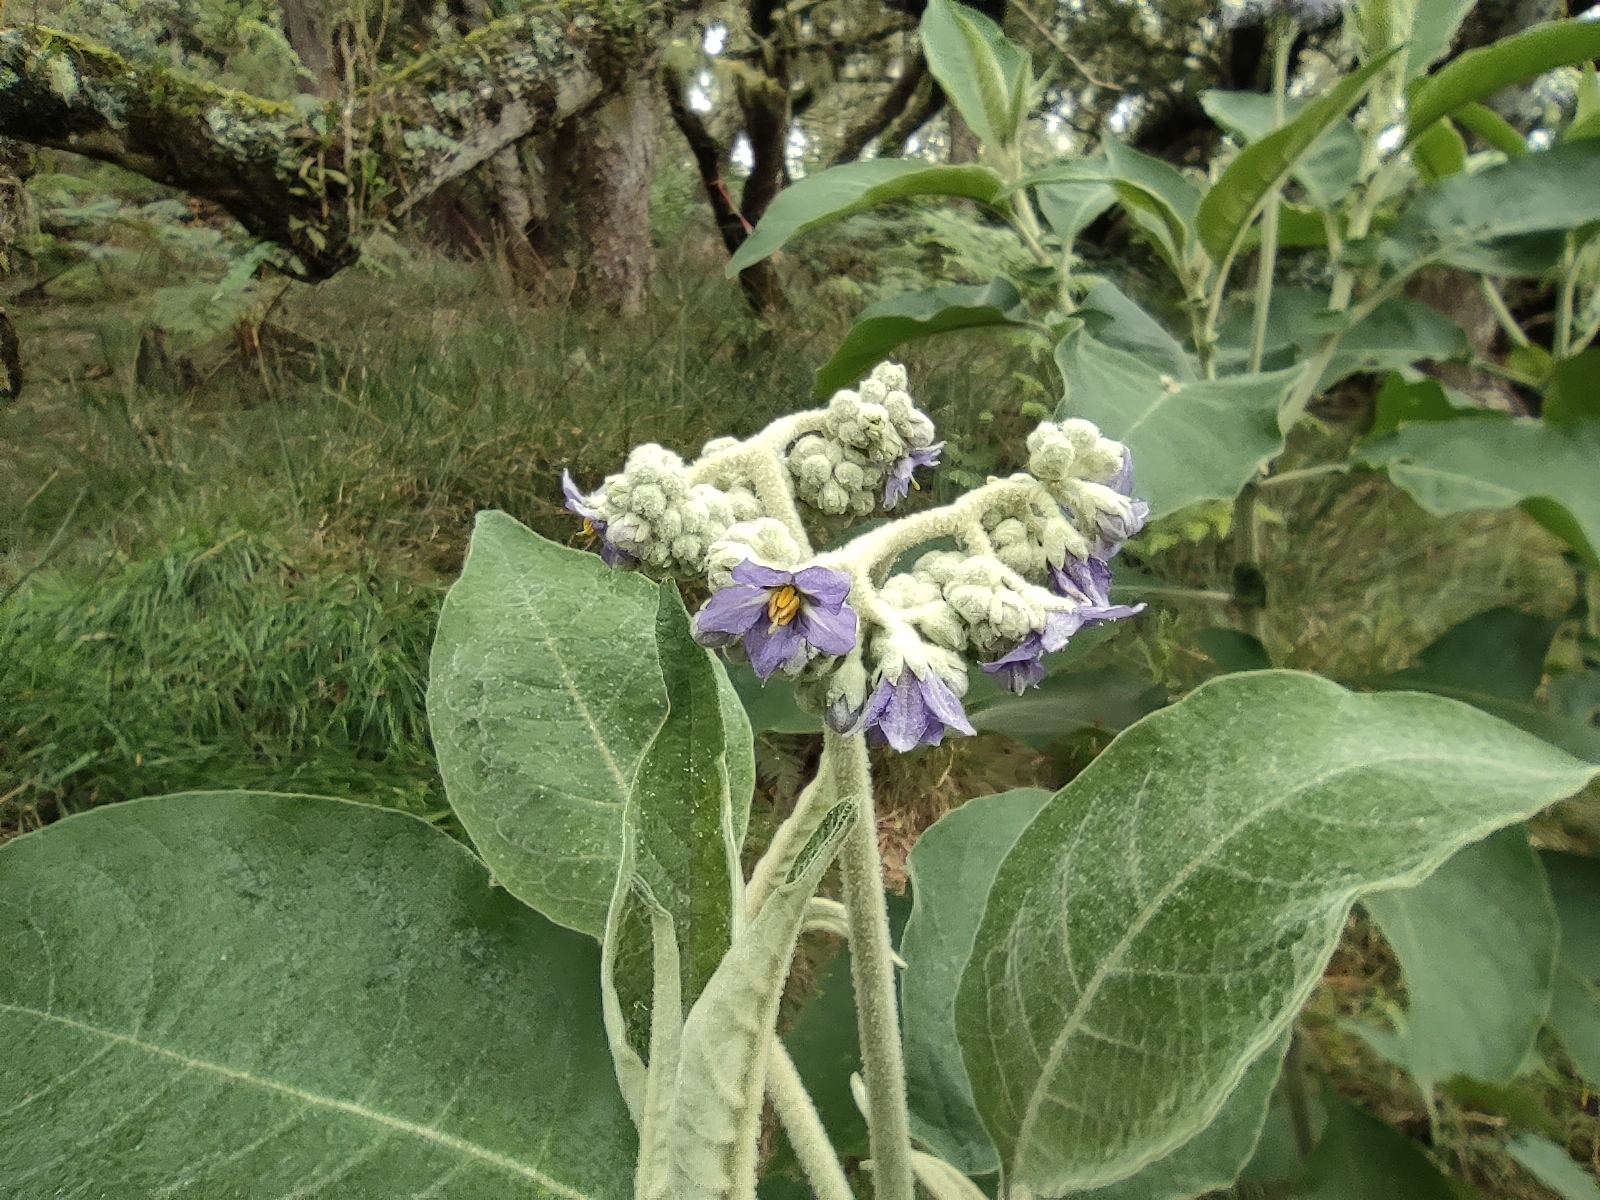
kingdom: Plantae
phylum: Tracheophyta
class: Magnoliopsida
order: Solanales
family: Solanaceae
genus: Solanum
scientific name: Solanum mauritianum
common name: Earleaf nightshade
